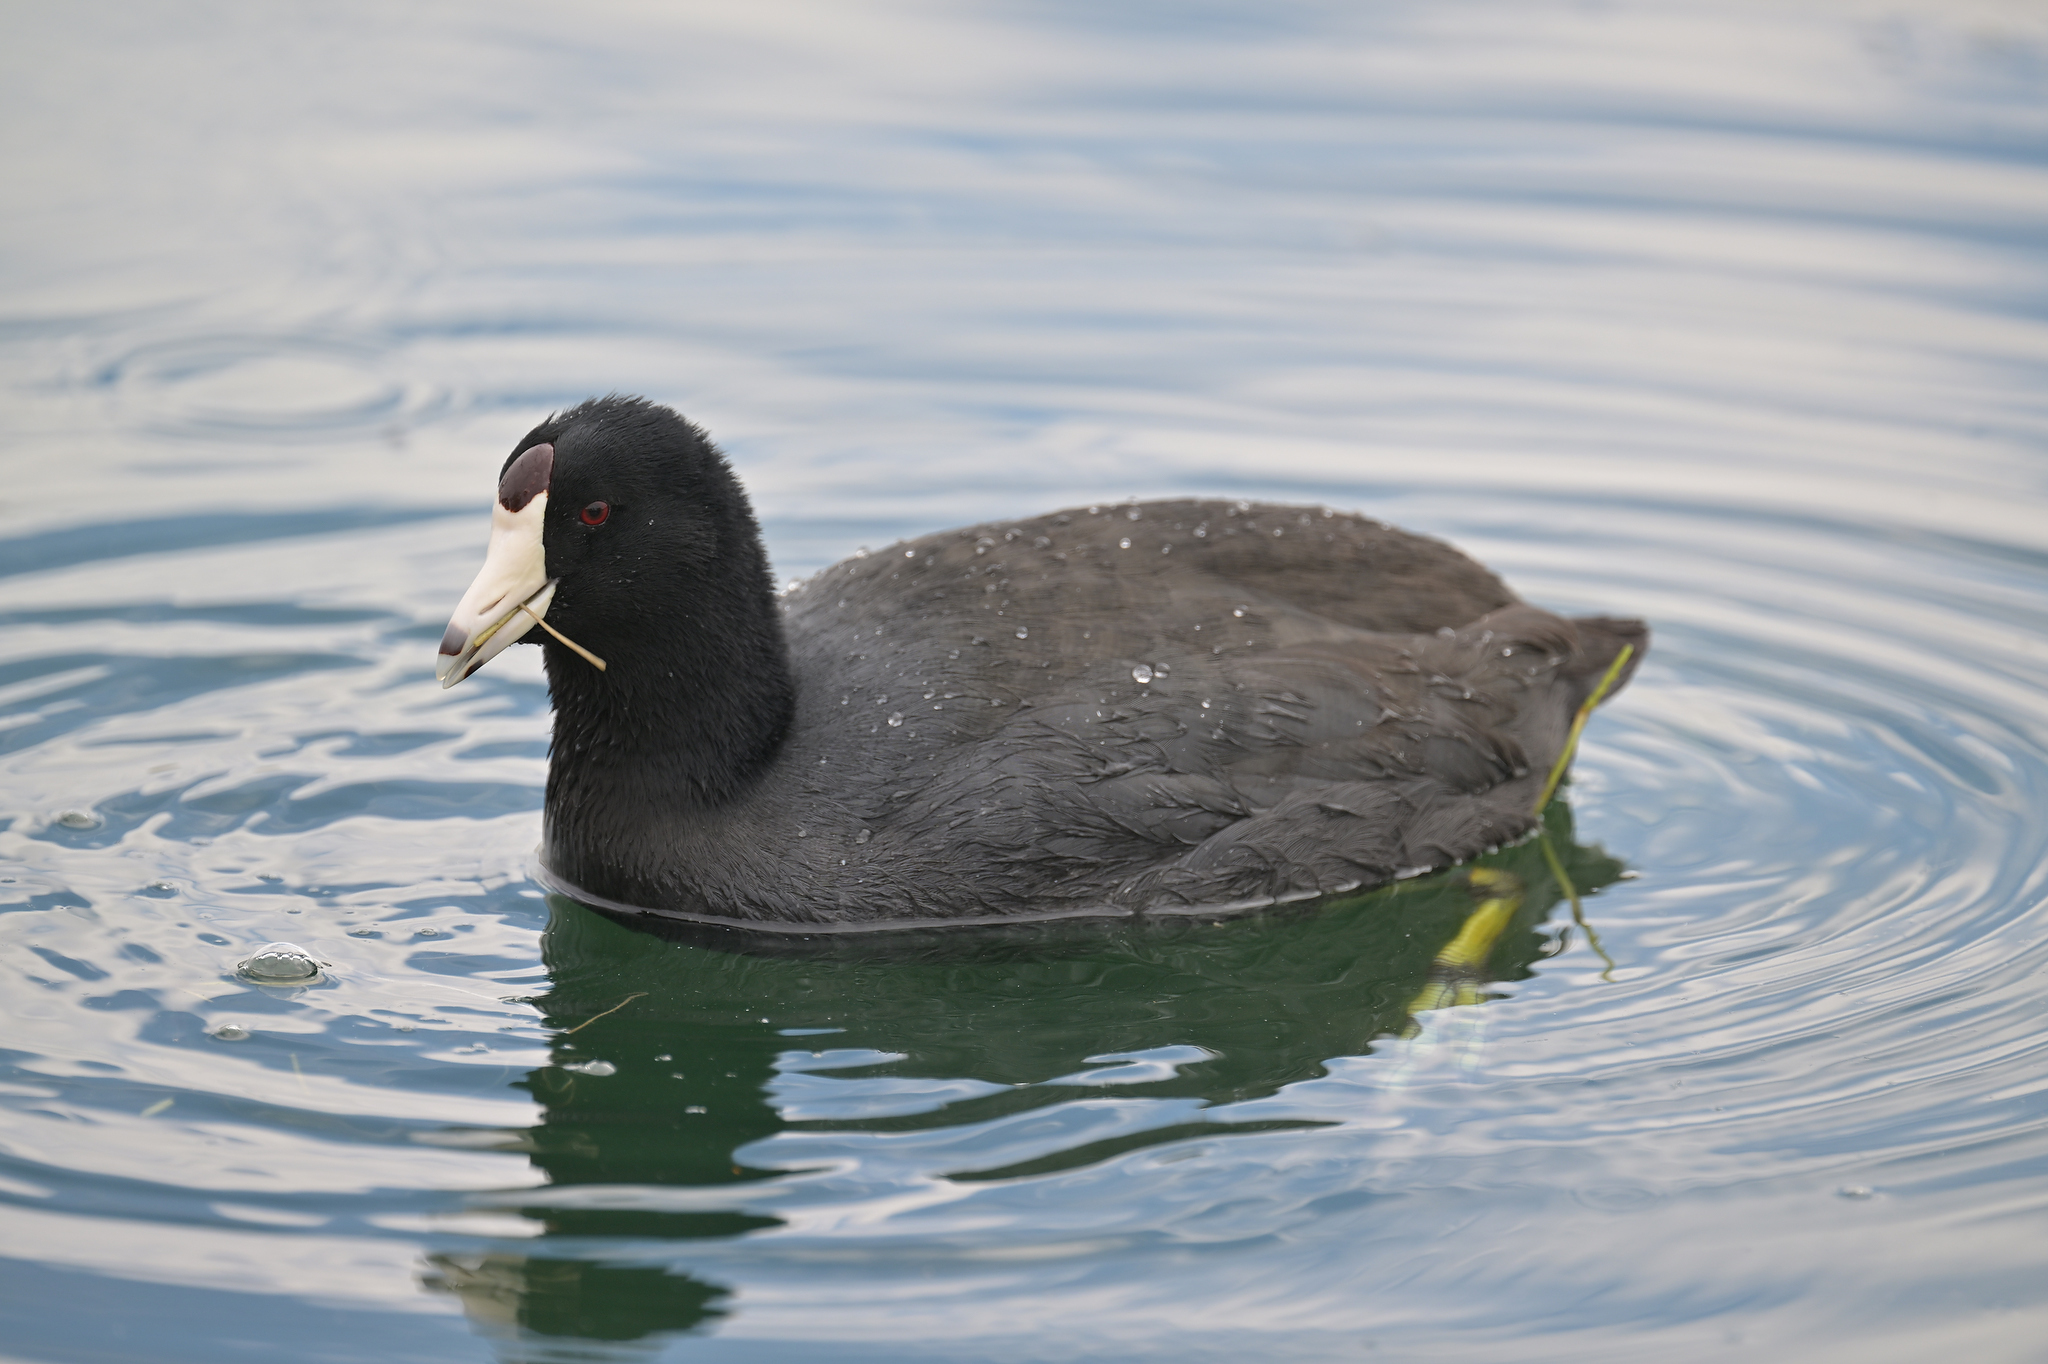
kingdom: Animalia
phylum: Chordata
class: Aves
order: Gruiformes
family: Rallidae
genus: Fulica
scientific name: Fulica americana
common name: American coot
